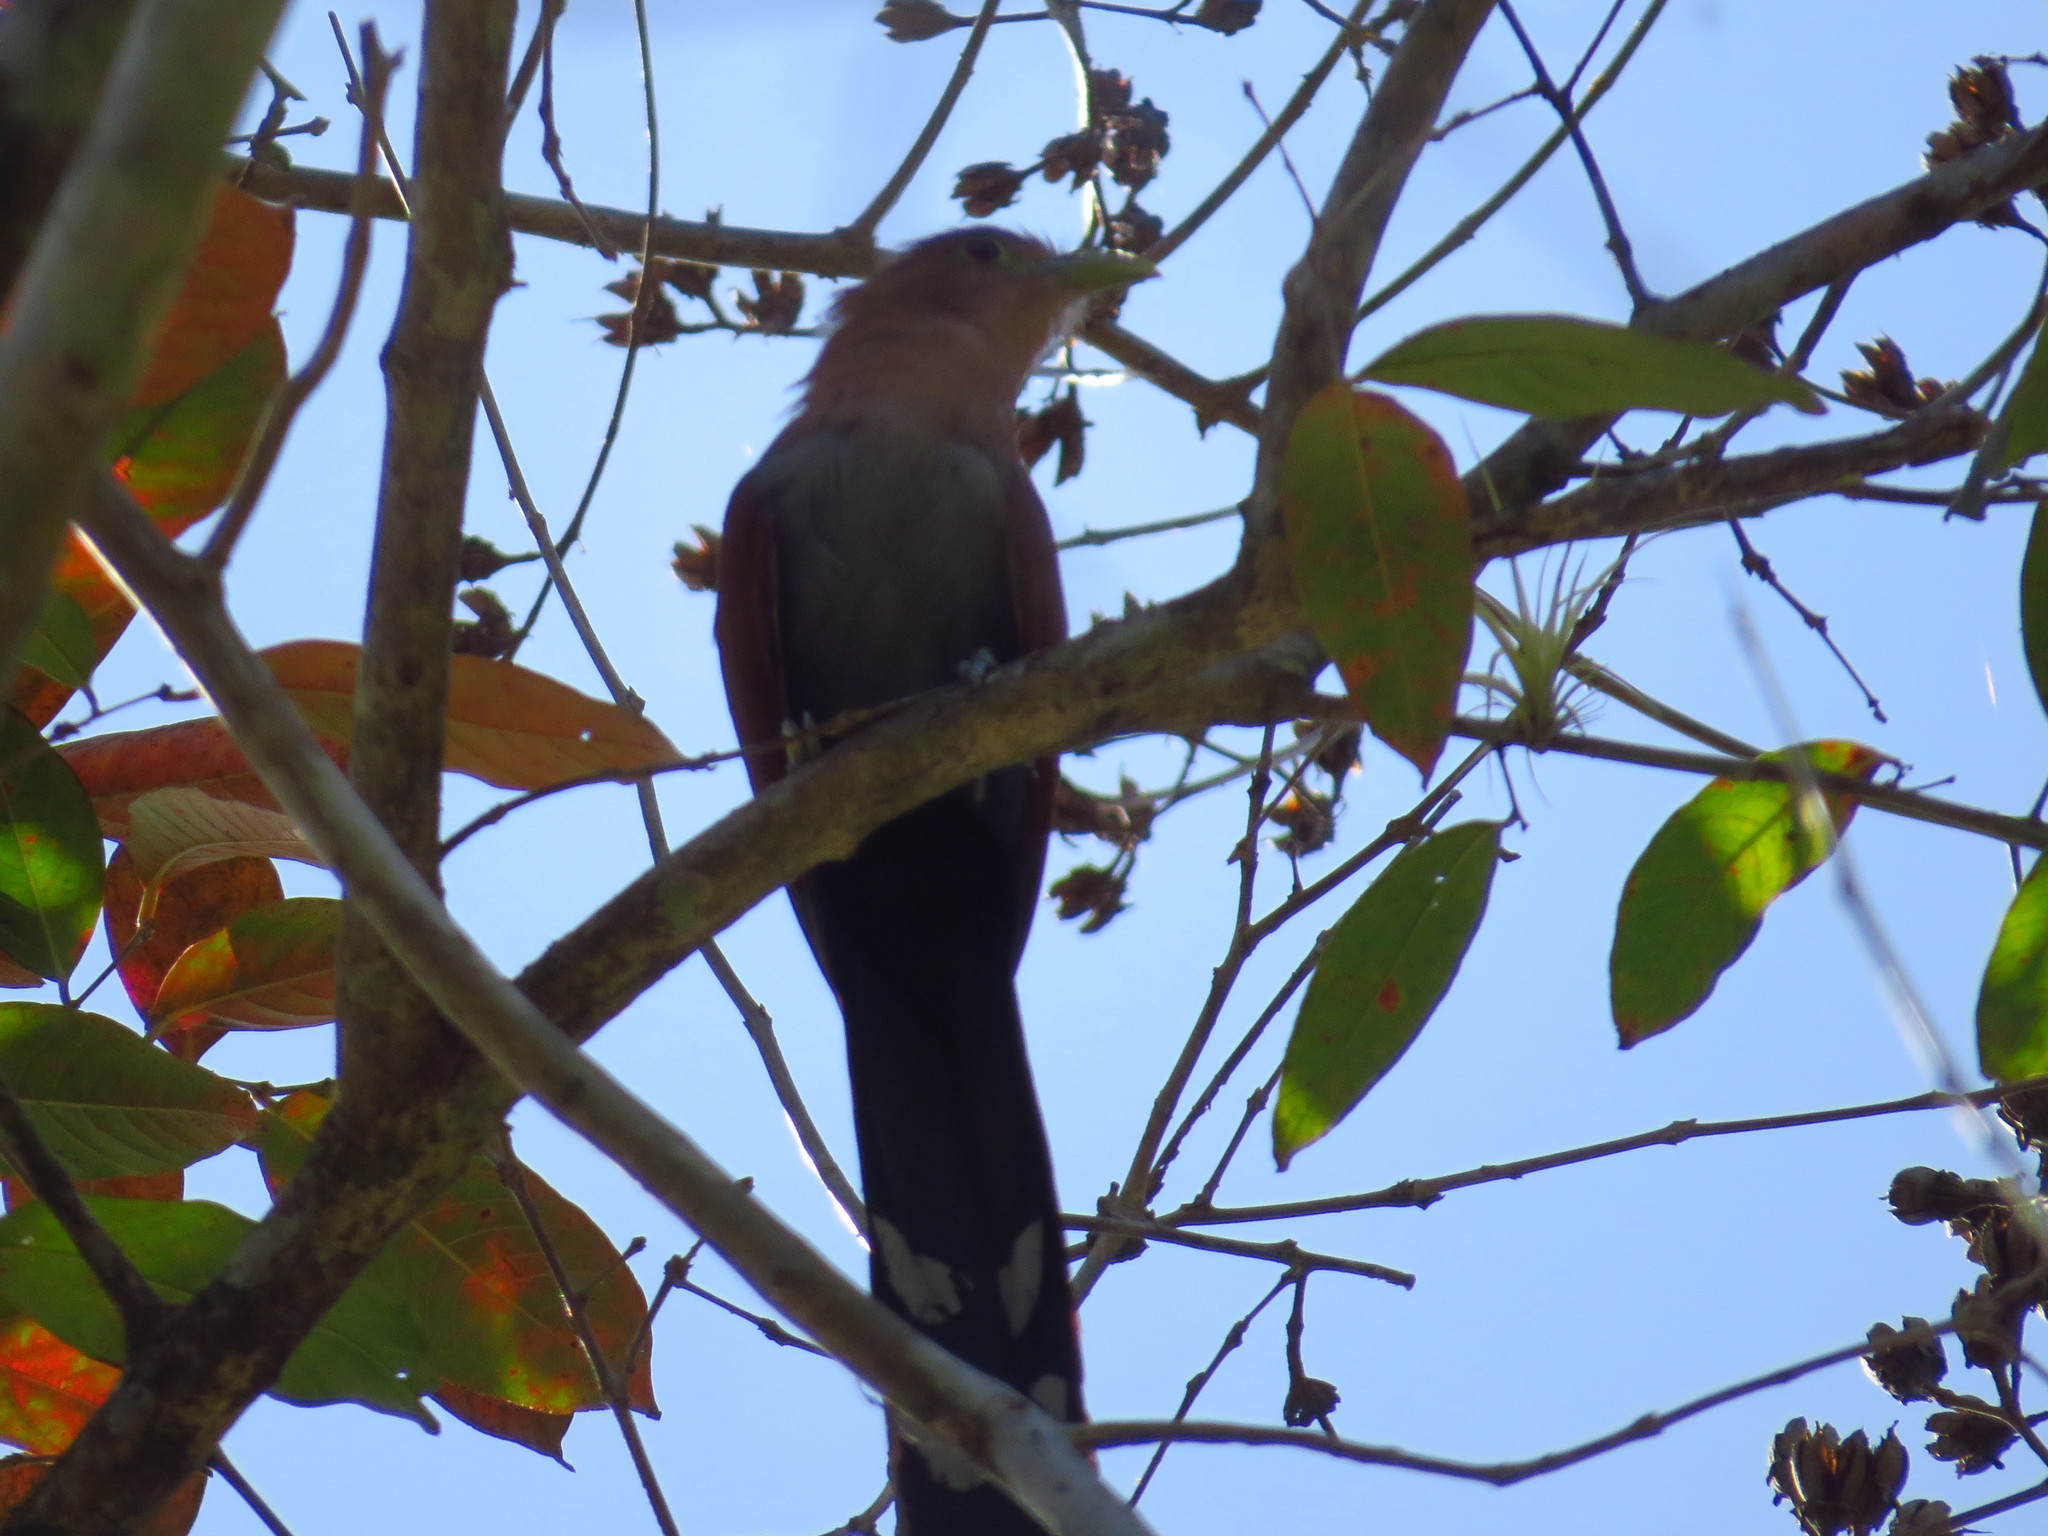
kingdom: Animalia
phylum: Chordata
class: Aves
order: Cuculiformes
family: Cuculidae
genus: Piaya
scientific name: Piaya cayana
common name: Squirrel cuckoo
